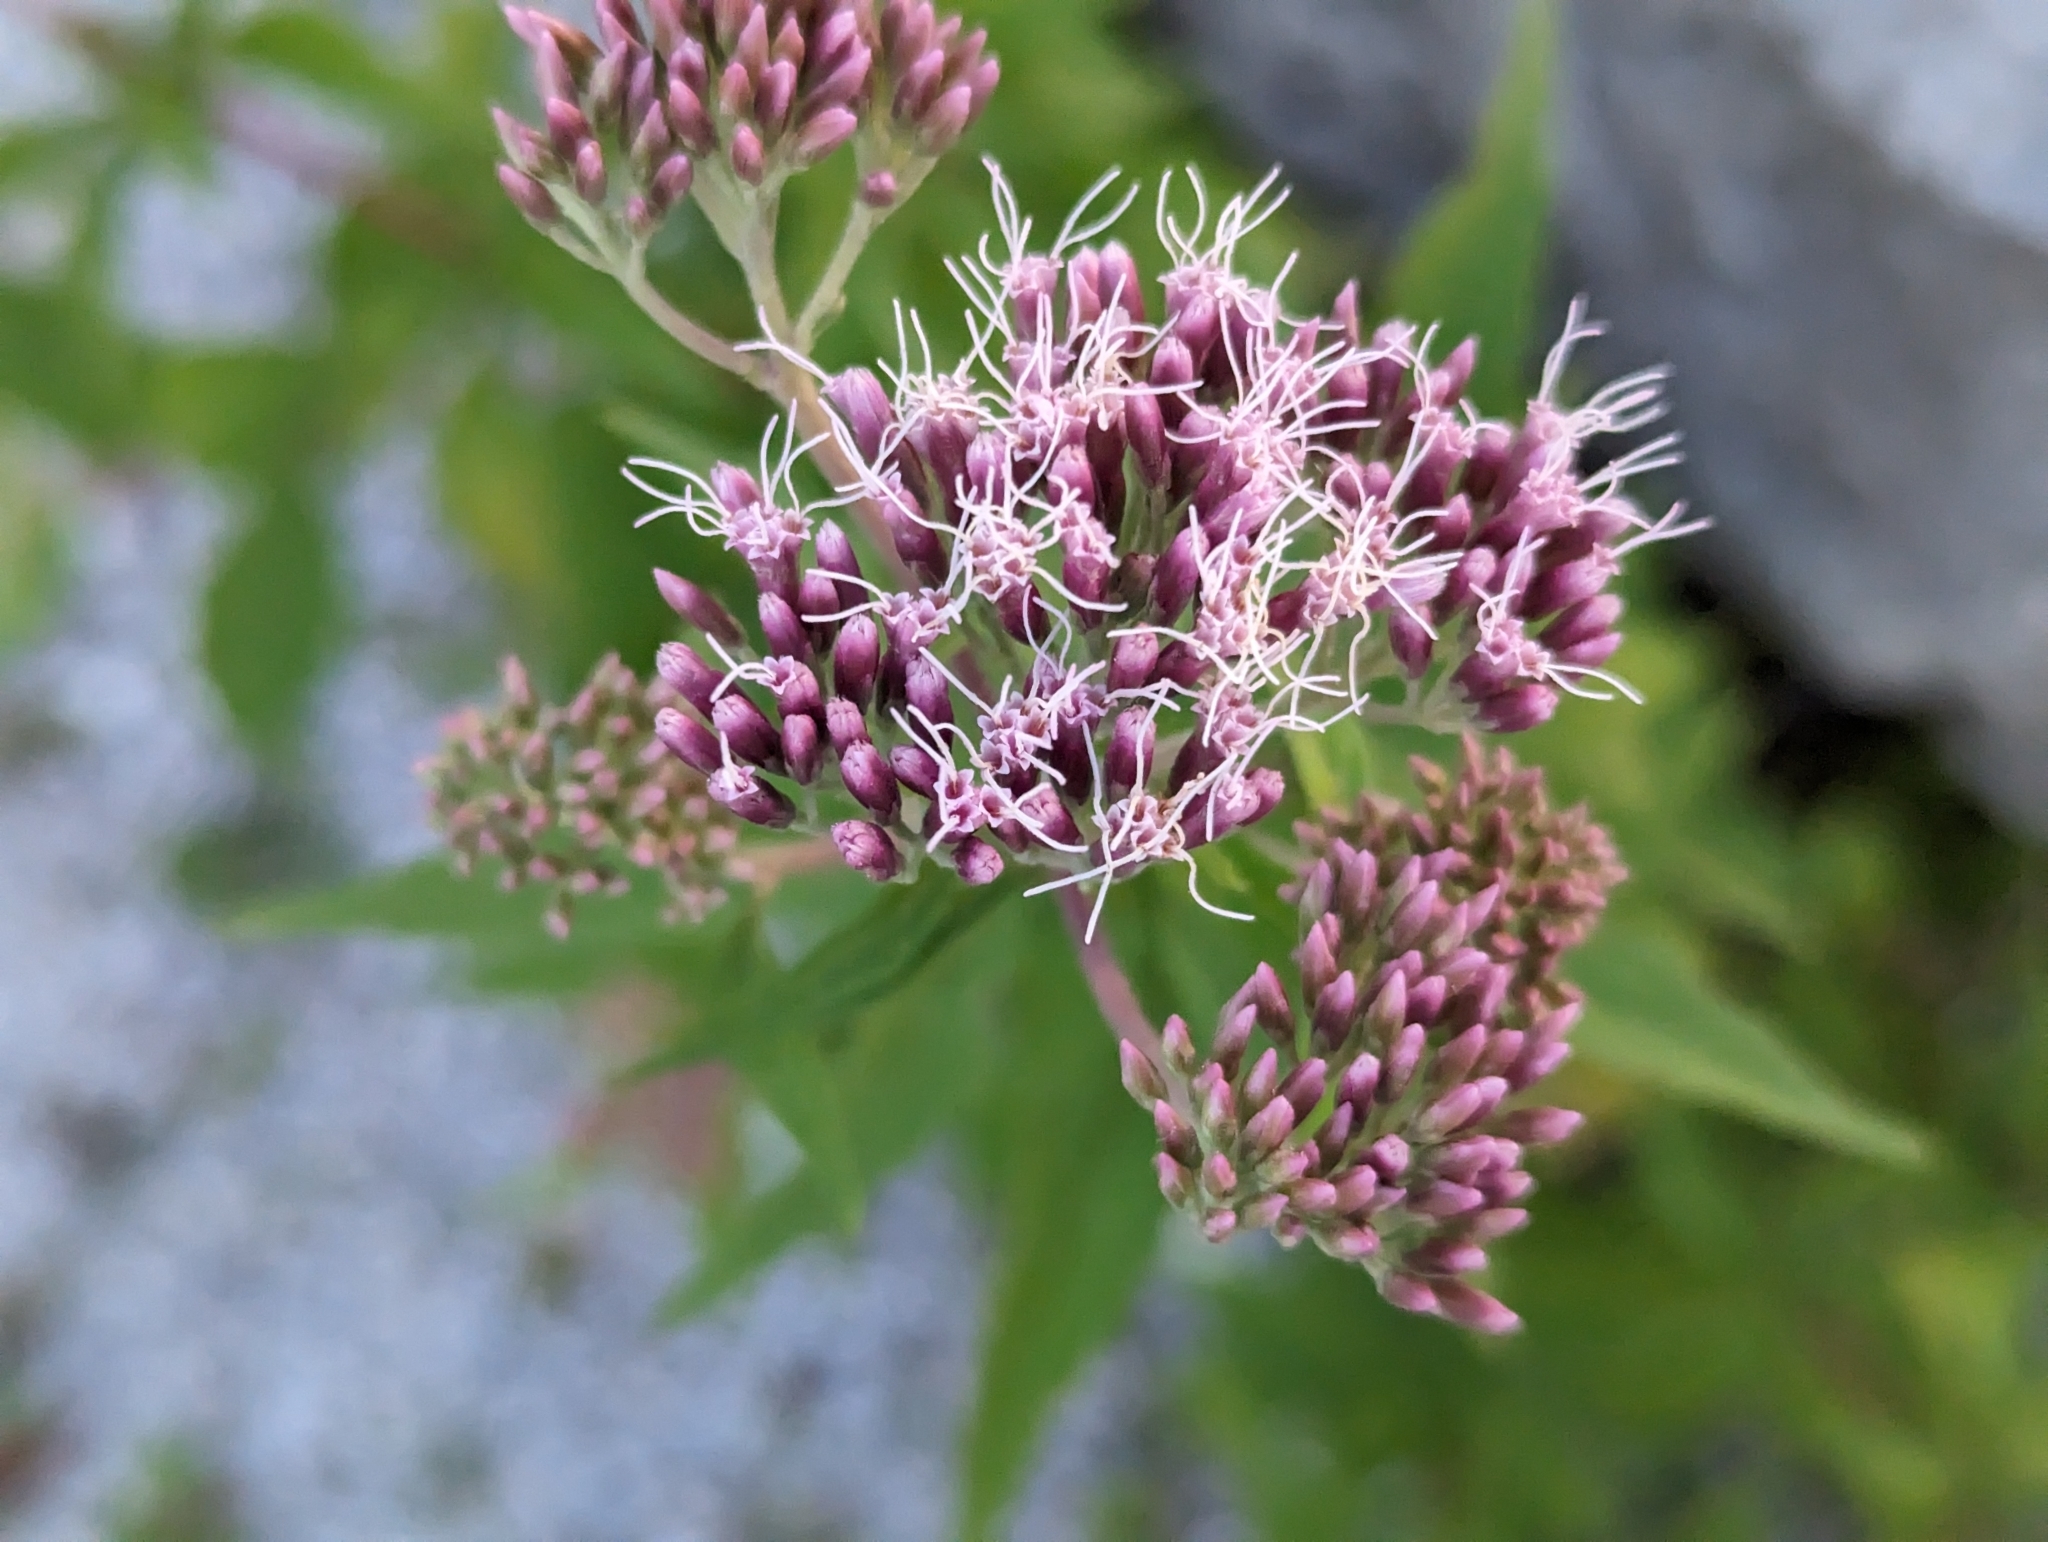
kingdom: Plantae
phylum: Tracheophyta
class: Magnoliopsida
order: Asterales
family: Asteraceae
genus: Eupatorium
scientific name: Eupatorium cannabinum
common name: Hemp-agrimony
